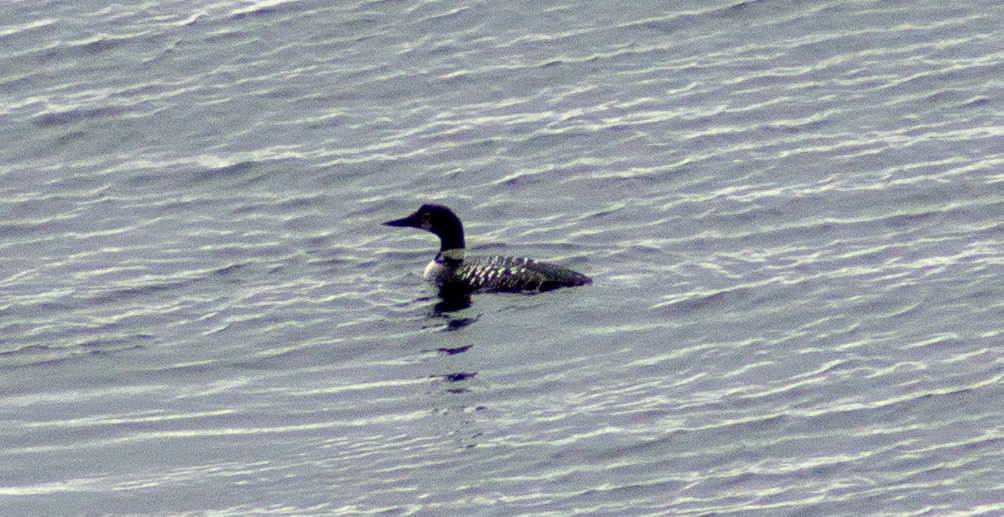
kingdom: Animalia
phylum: Chordata
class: Aves
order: Gaviiformes
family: Gaviidae
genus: Gavia
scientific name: Gavia immer
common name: Common loon
